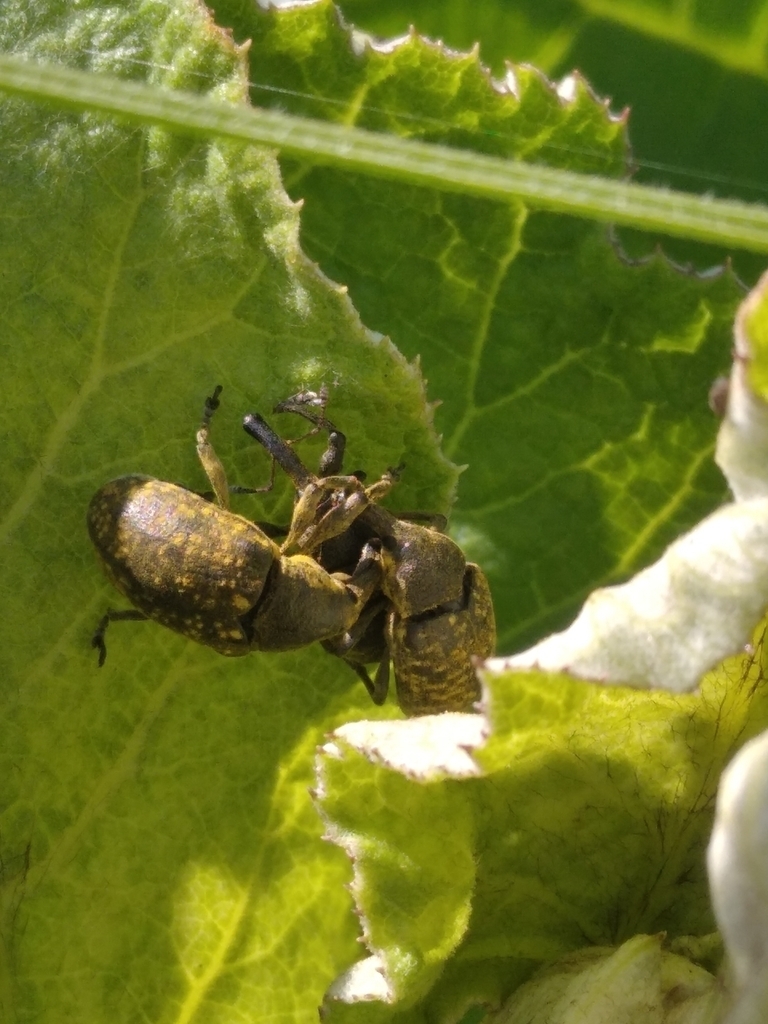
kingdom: Animalia
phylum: Arthropoda
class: Insecta
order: Coleoptera
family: Curculionidae
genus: Larinus
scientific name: Larinus sturnus
